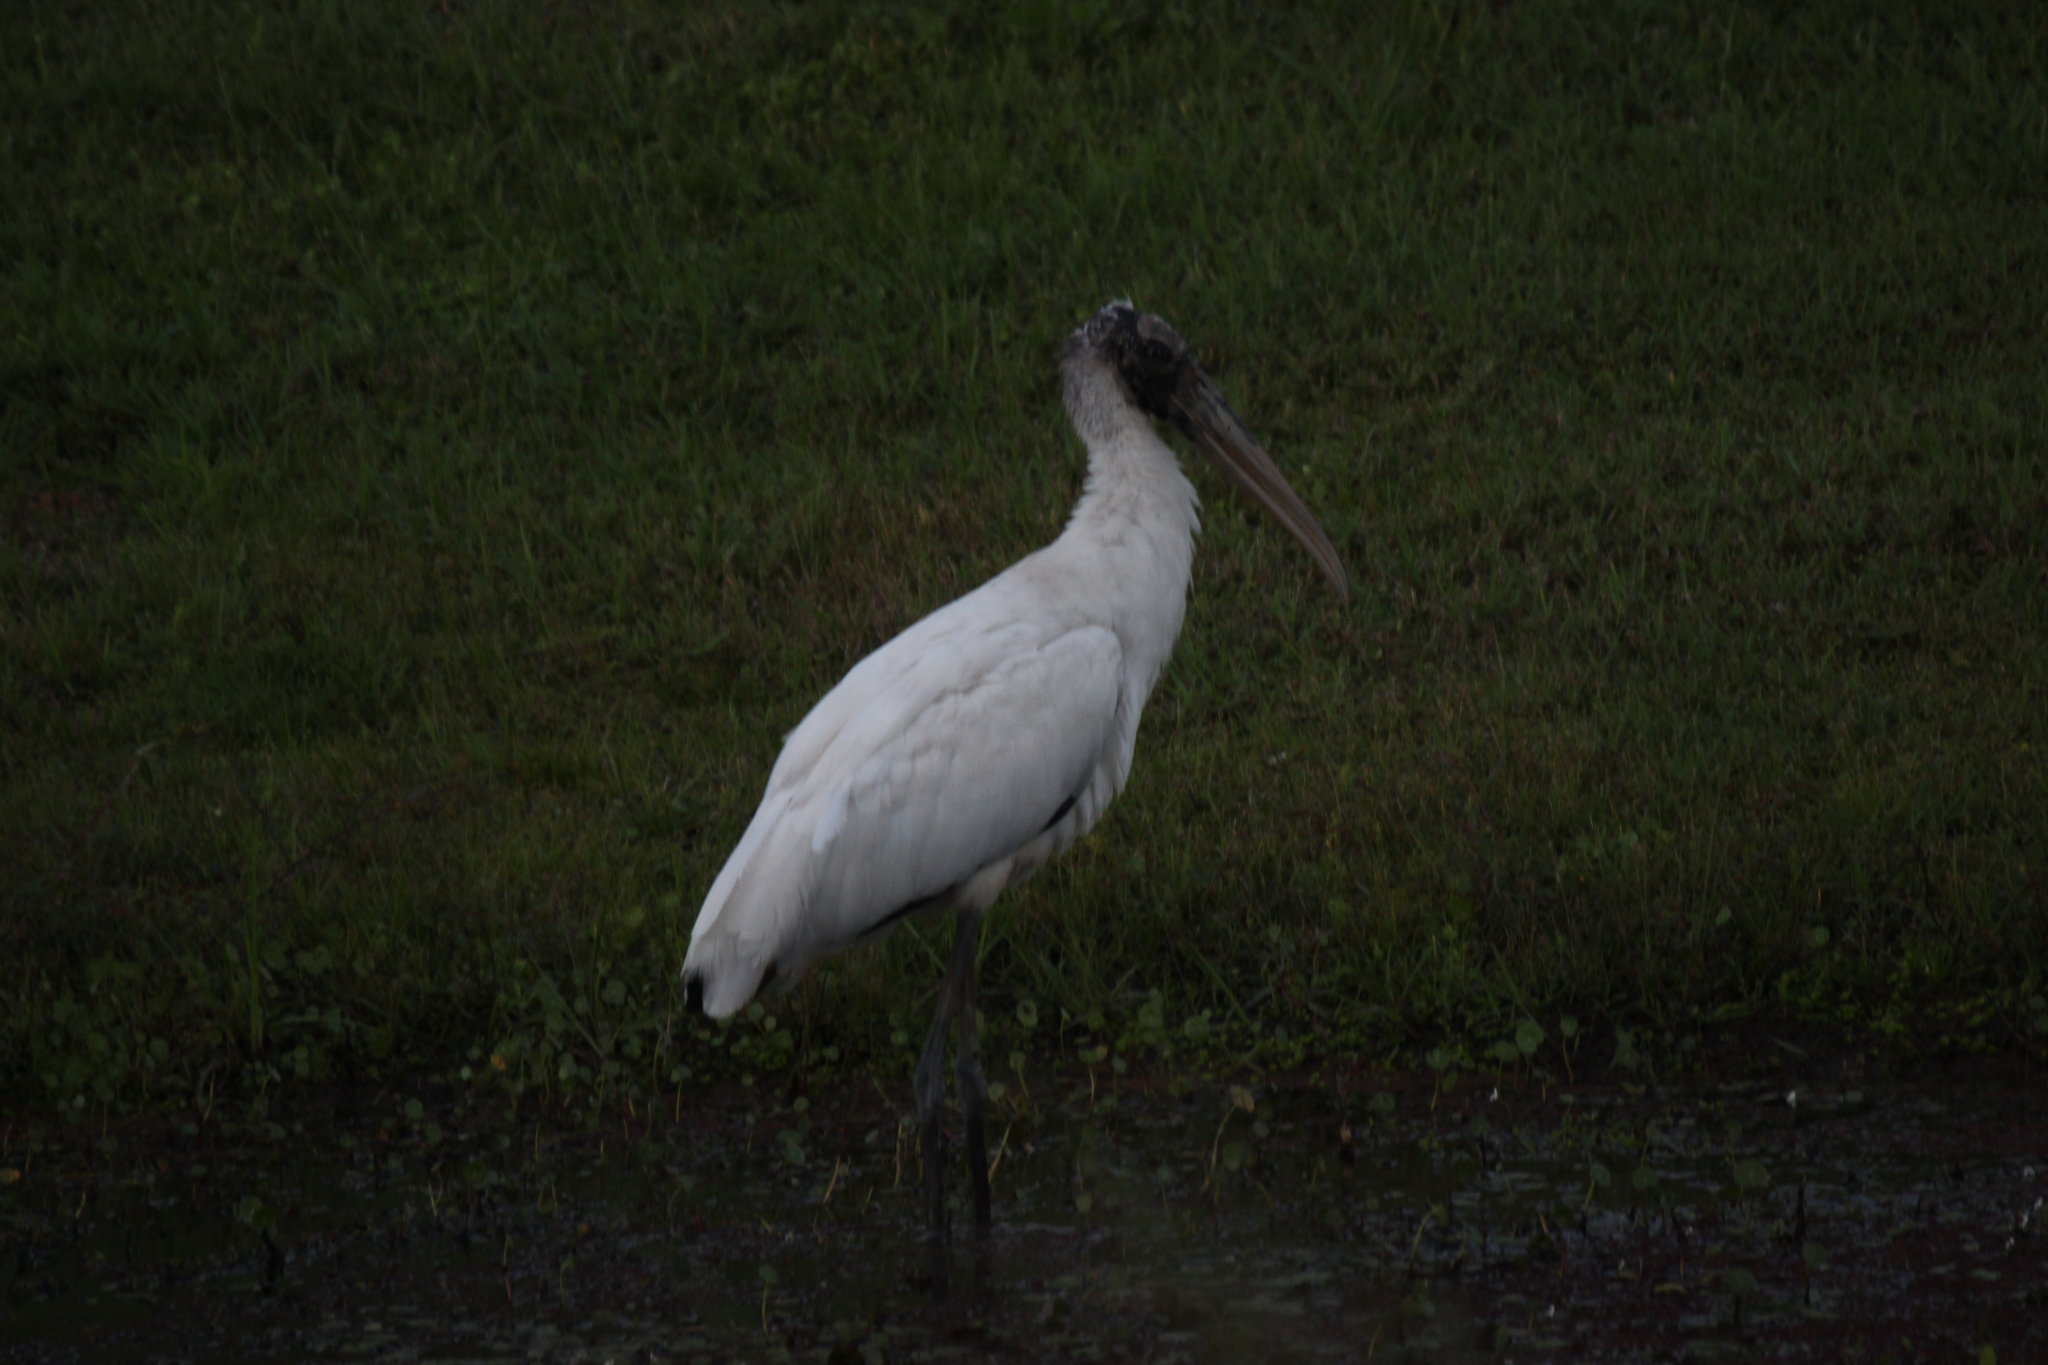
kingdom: Animalia
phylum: Chordata
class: Aves
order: Ciconiiformes
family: Ciconiidae
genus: Mycteria
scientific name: Mycteria americana
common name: Wood stork
